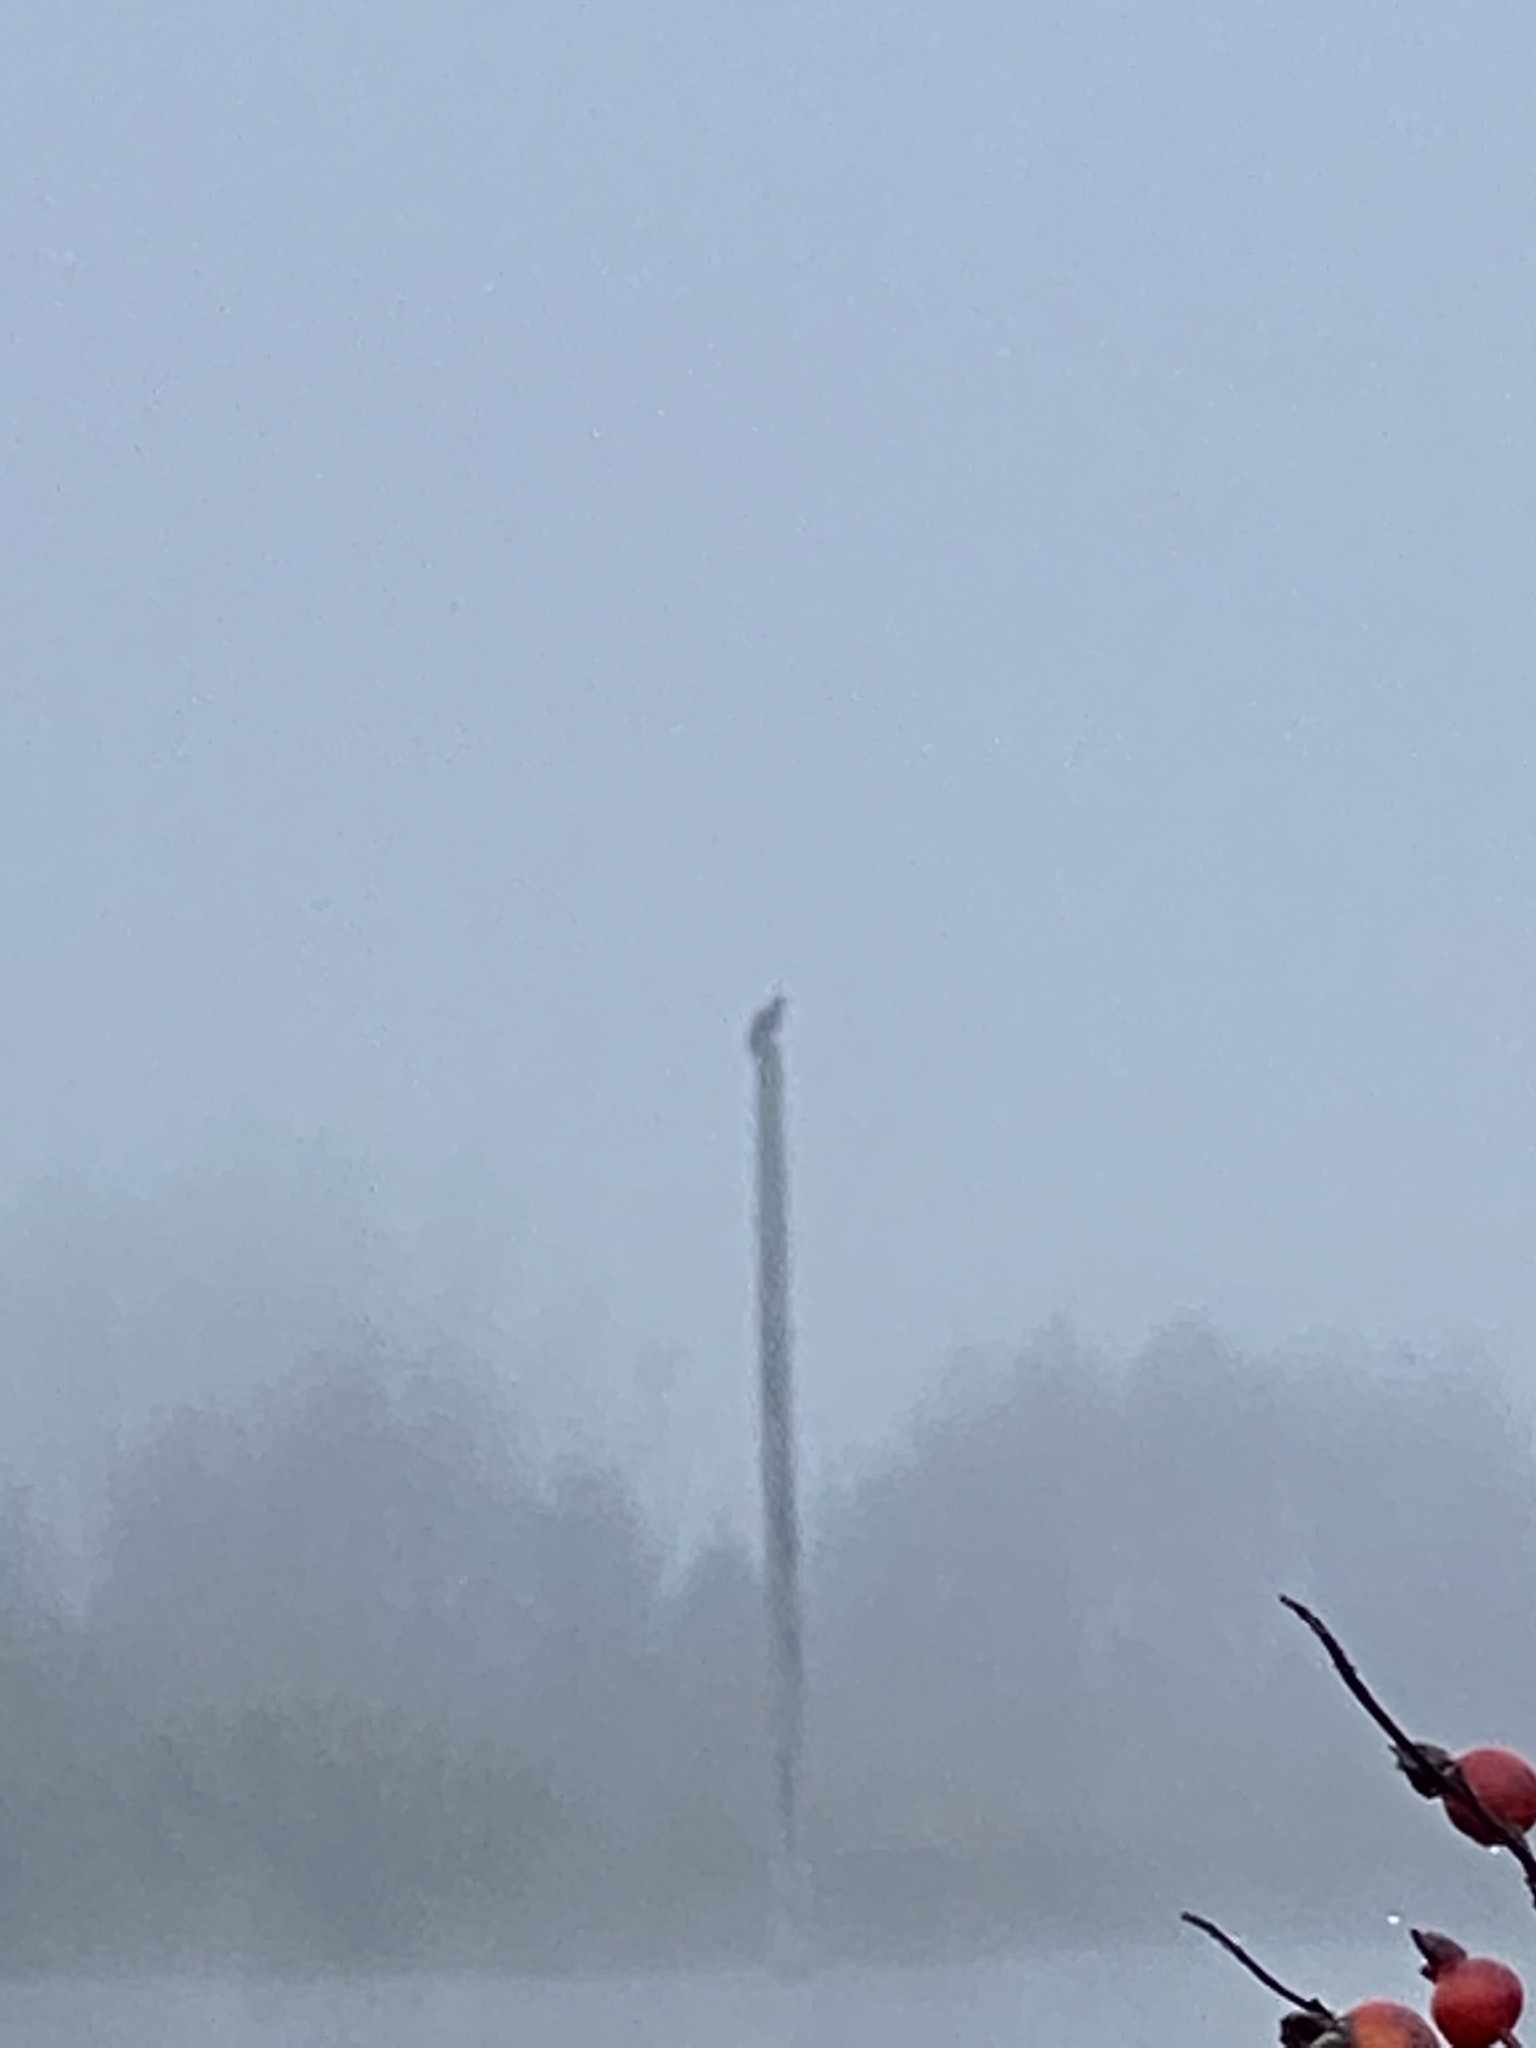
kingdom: Animalia
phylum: Chordata
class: Aves
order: Accipitriformes
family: Accipitridae
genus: Haliaeetus
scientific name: Haliaeetus leucocephalus
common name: Bald eagle
